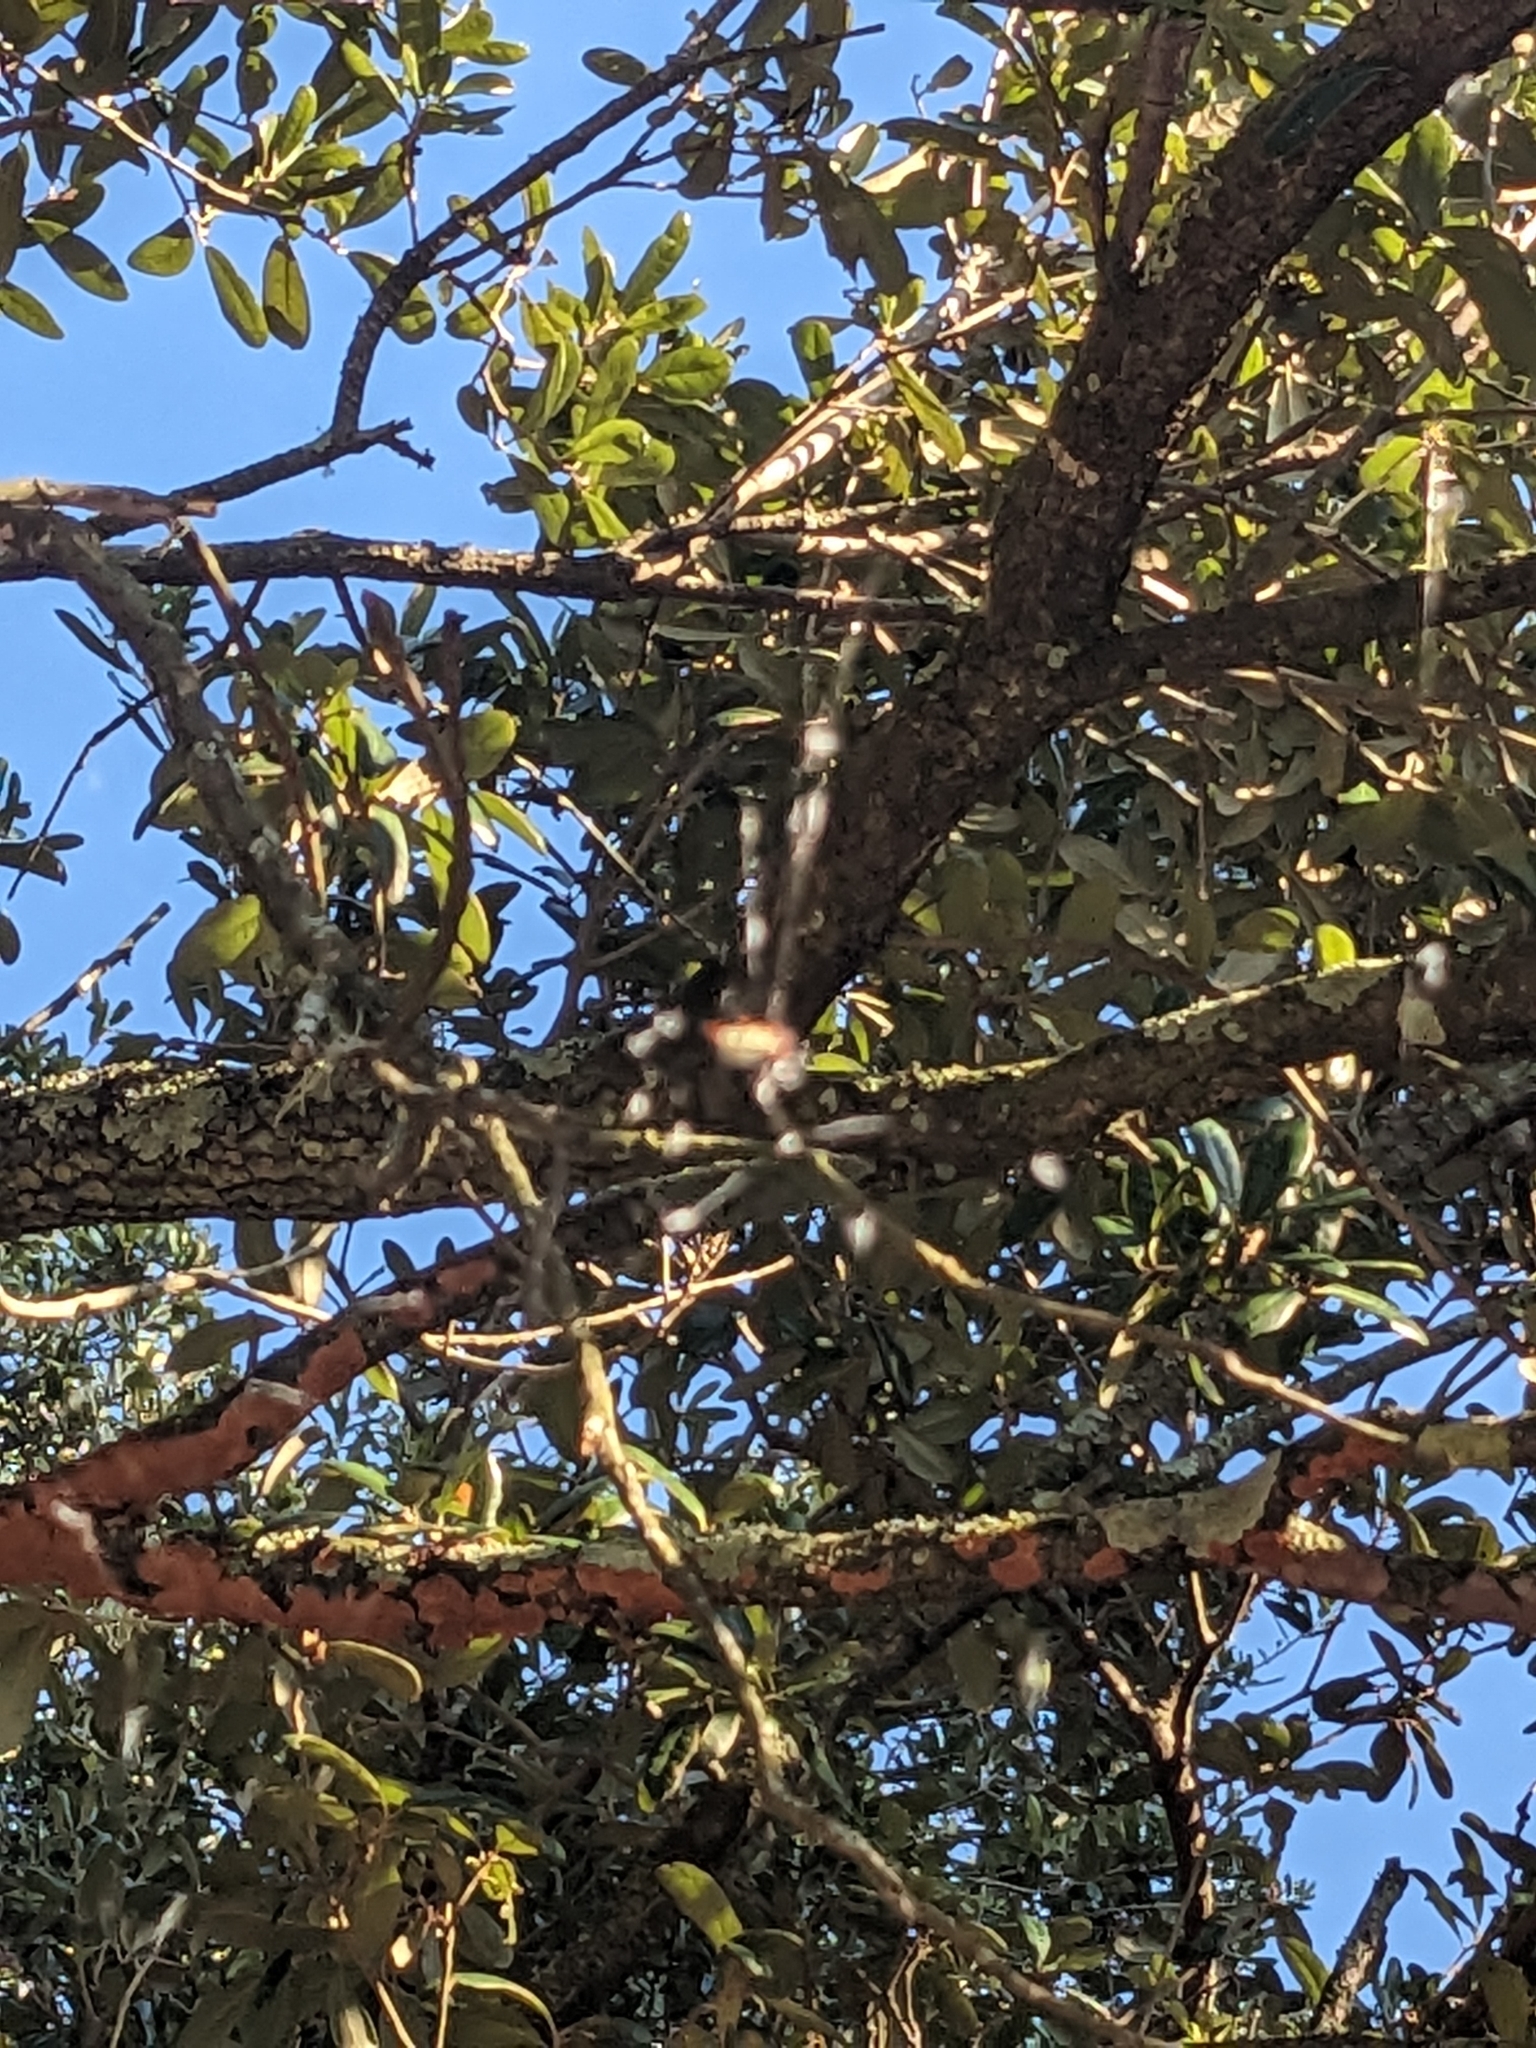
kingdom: Animalia
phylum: Arthropoda
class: Arachnida
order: Araneae
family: Araneidae
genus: Gasteracantha
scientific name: Gasteracantha cancriformis
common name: Orb weavers
